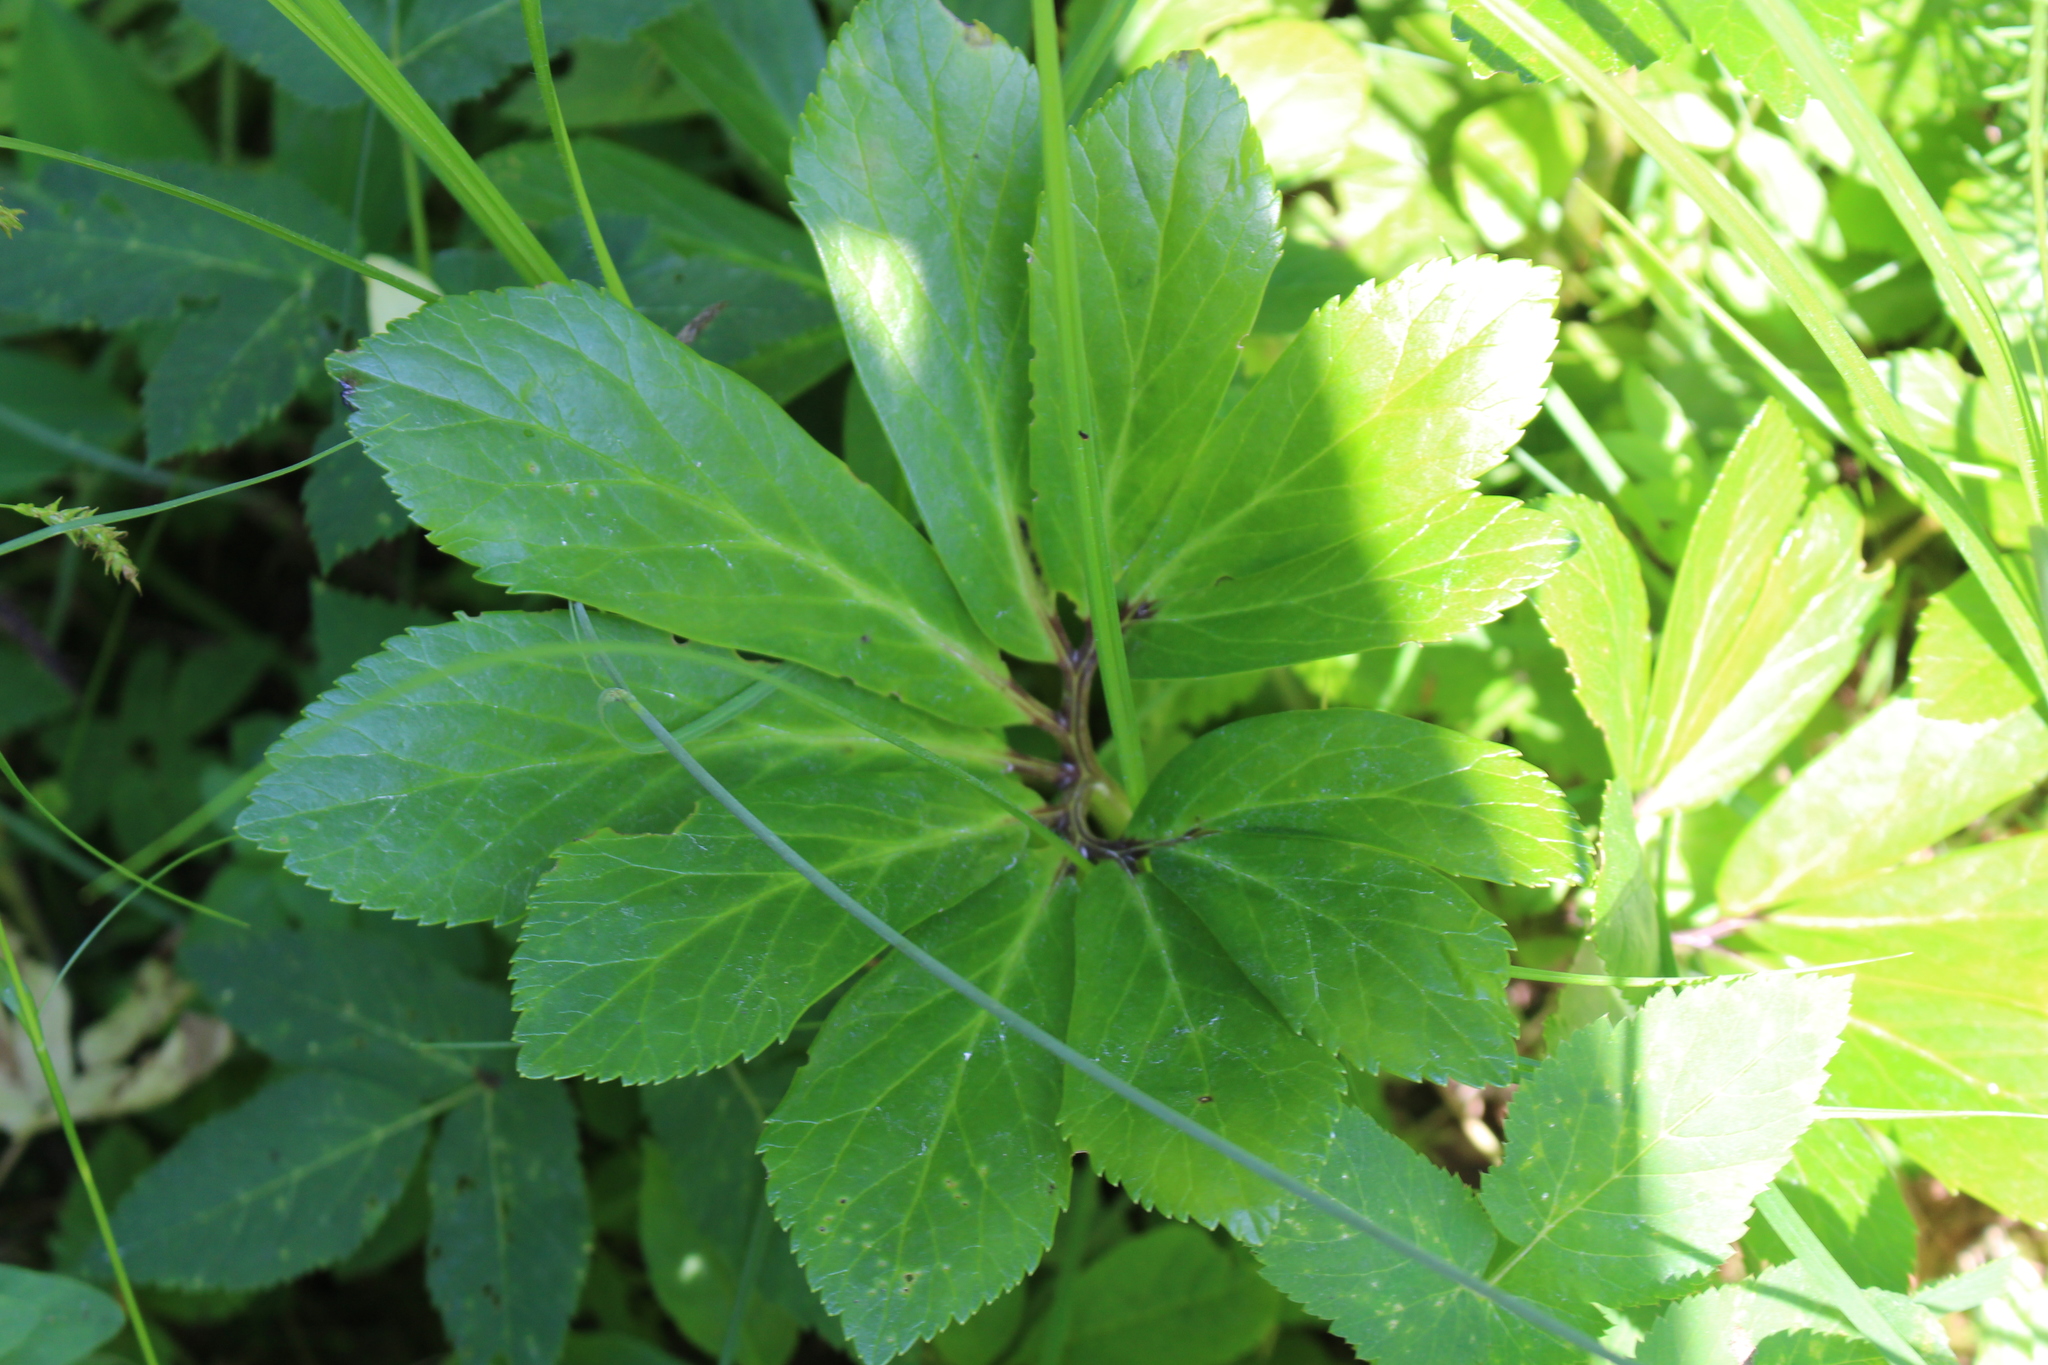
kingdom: Plantae
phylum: Tracheophyta
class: Magnoliopsida
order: Ranunculales
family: Ranunculaceae
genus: Helleborus
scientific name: Helleborus niger
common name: Black hellebore
